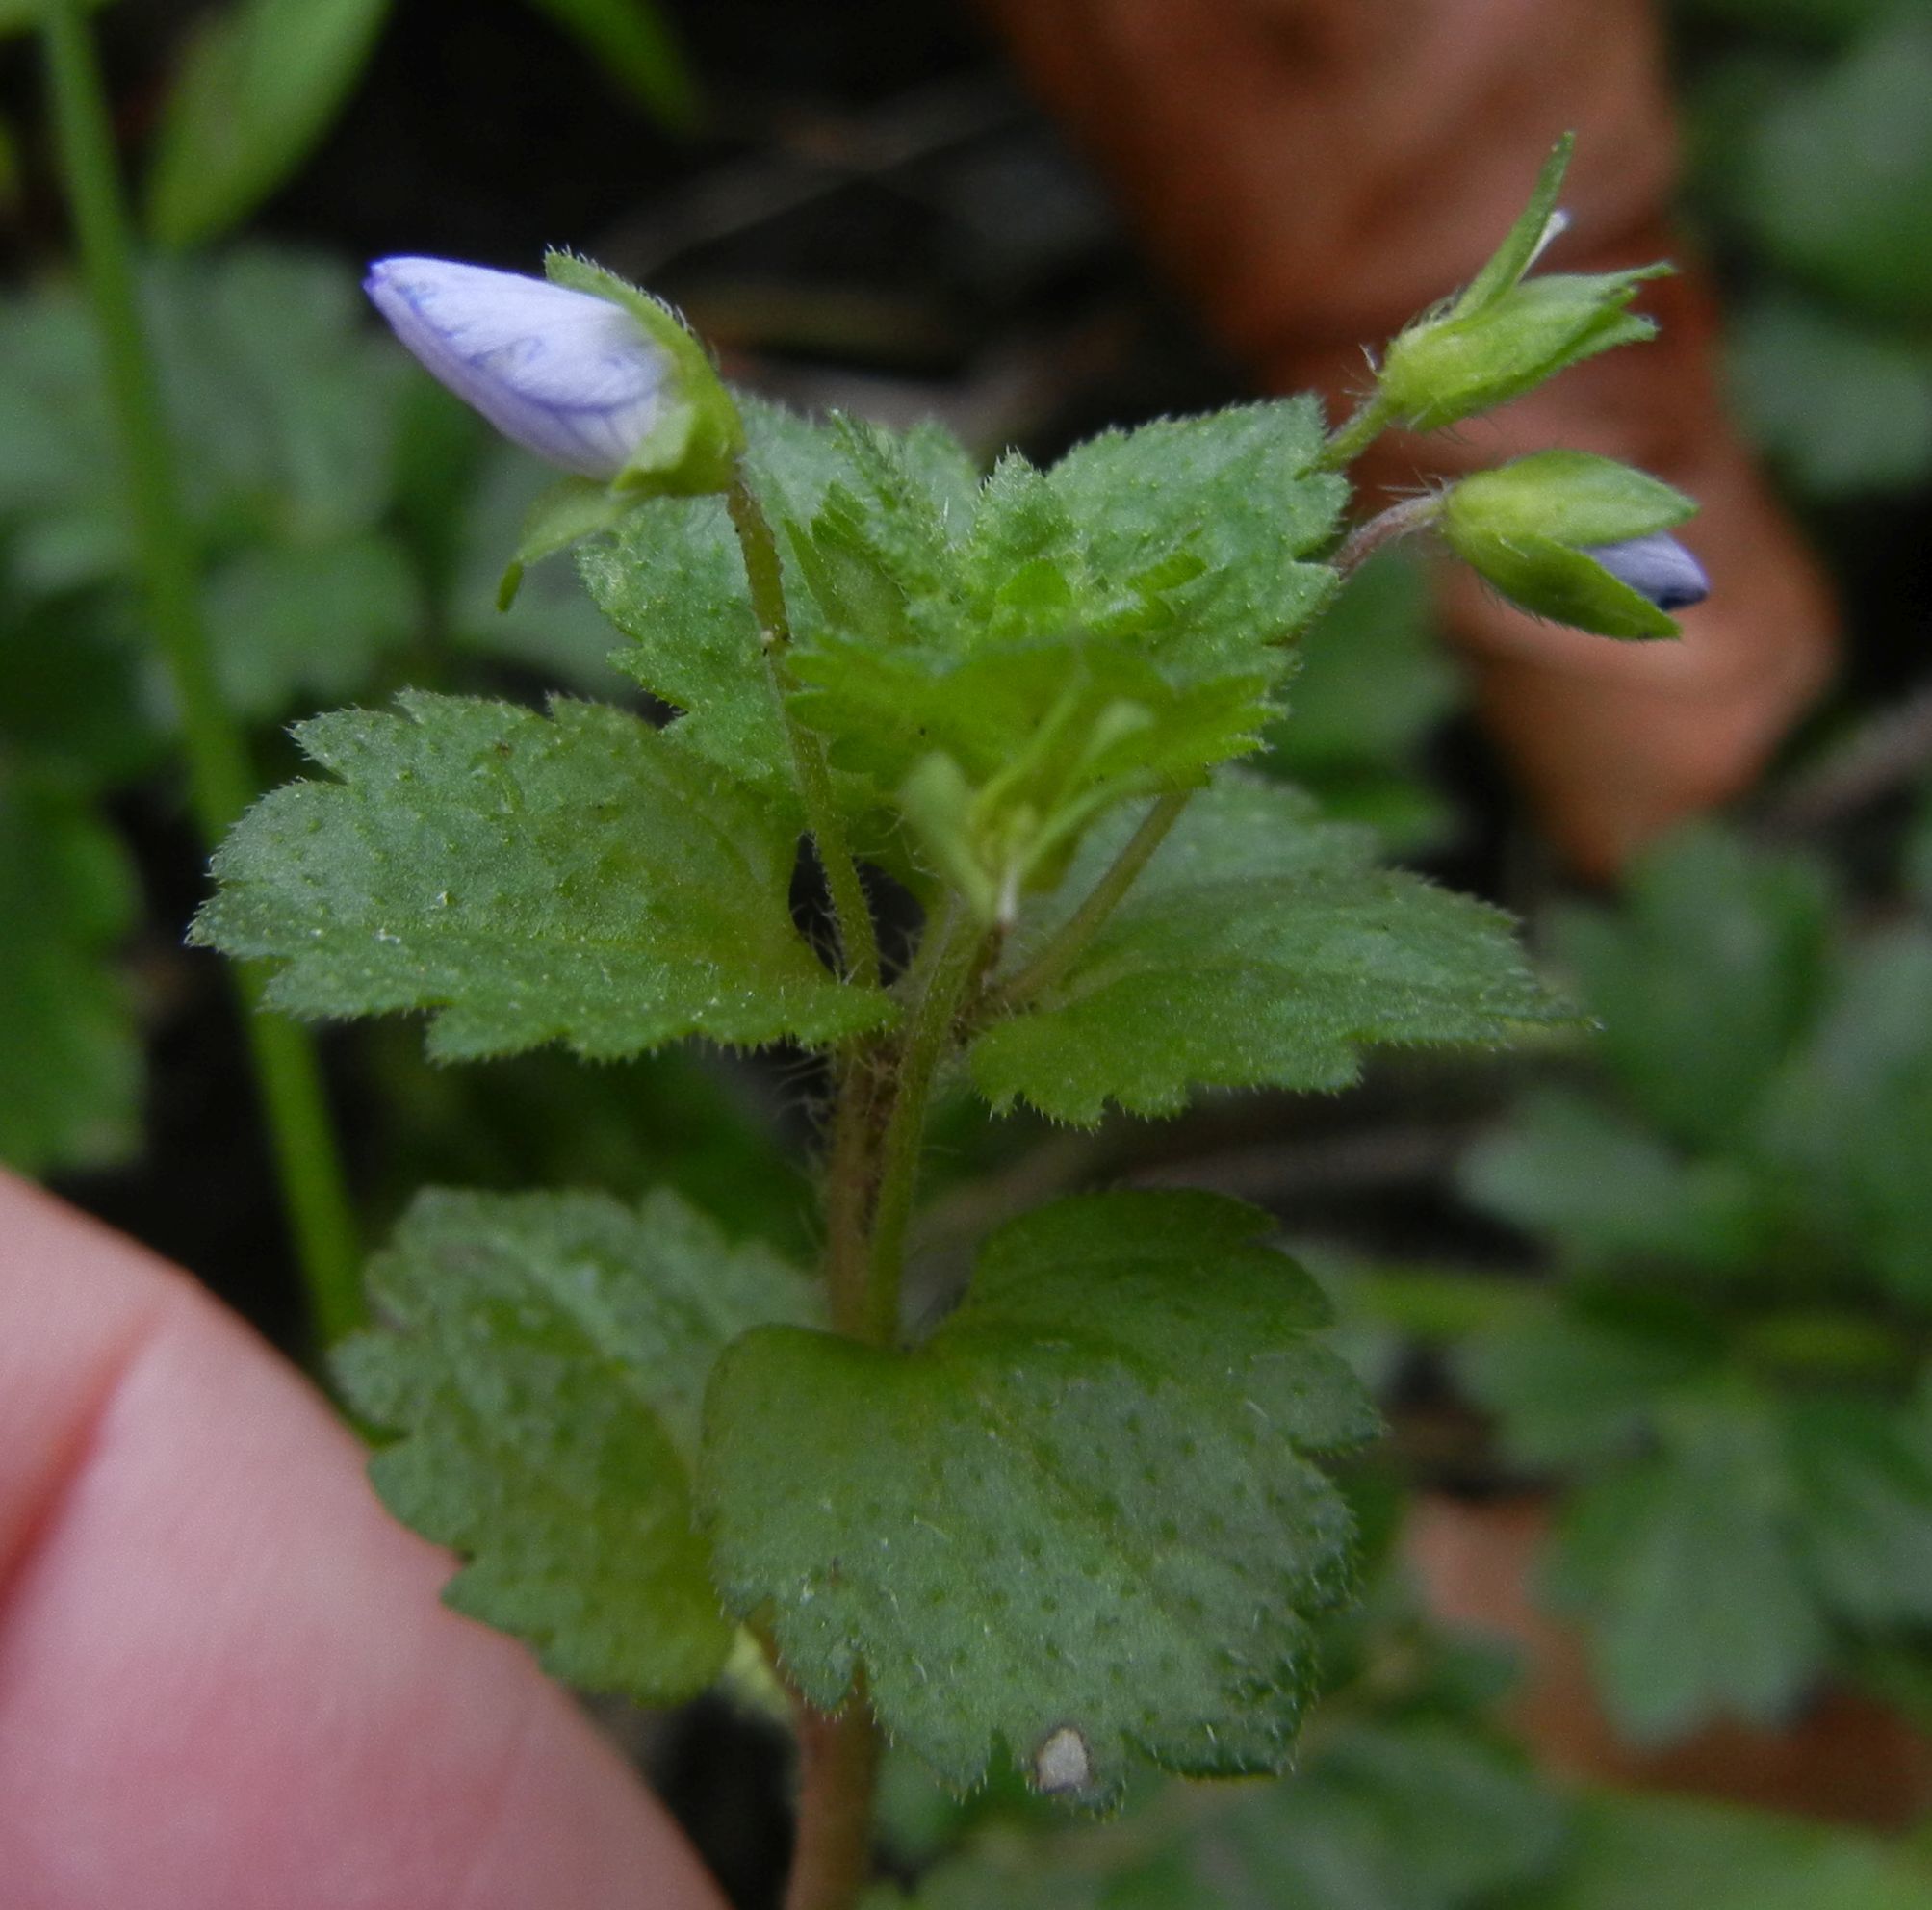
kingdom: Plantae
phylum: Tracheophyta
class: Magnoliopsida
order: Lamiales
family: Plantaginaceae
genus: Veronica
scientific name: Veronica persica
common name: Common field-speedwell
